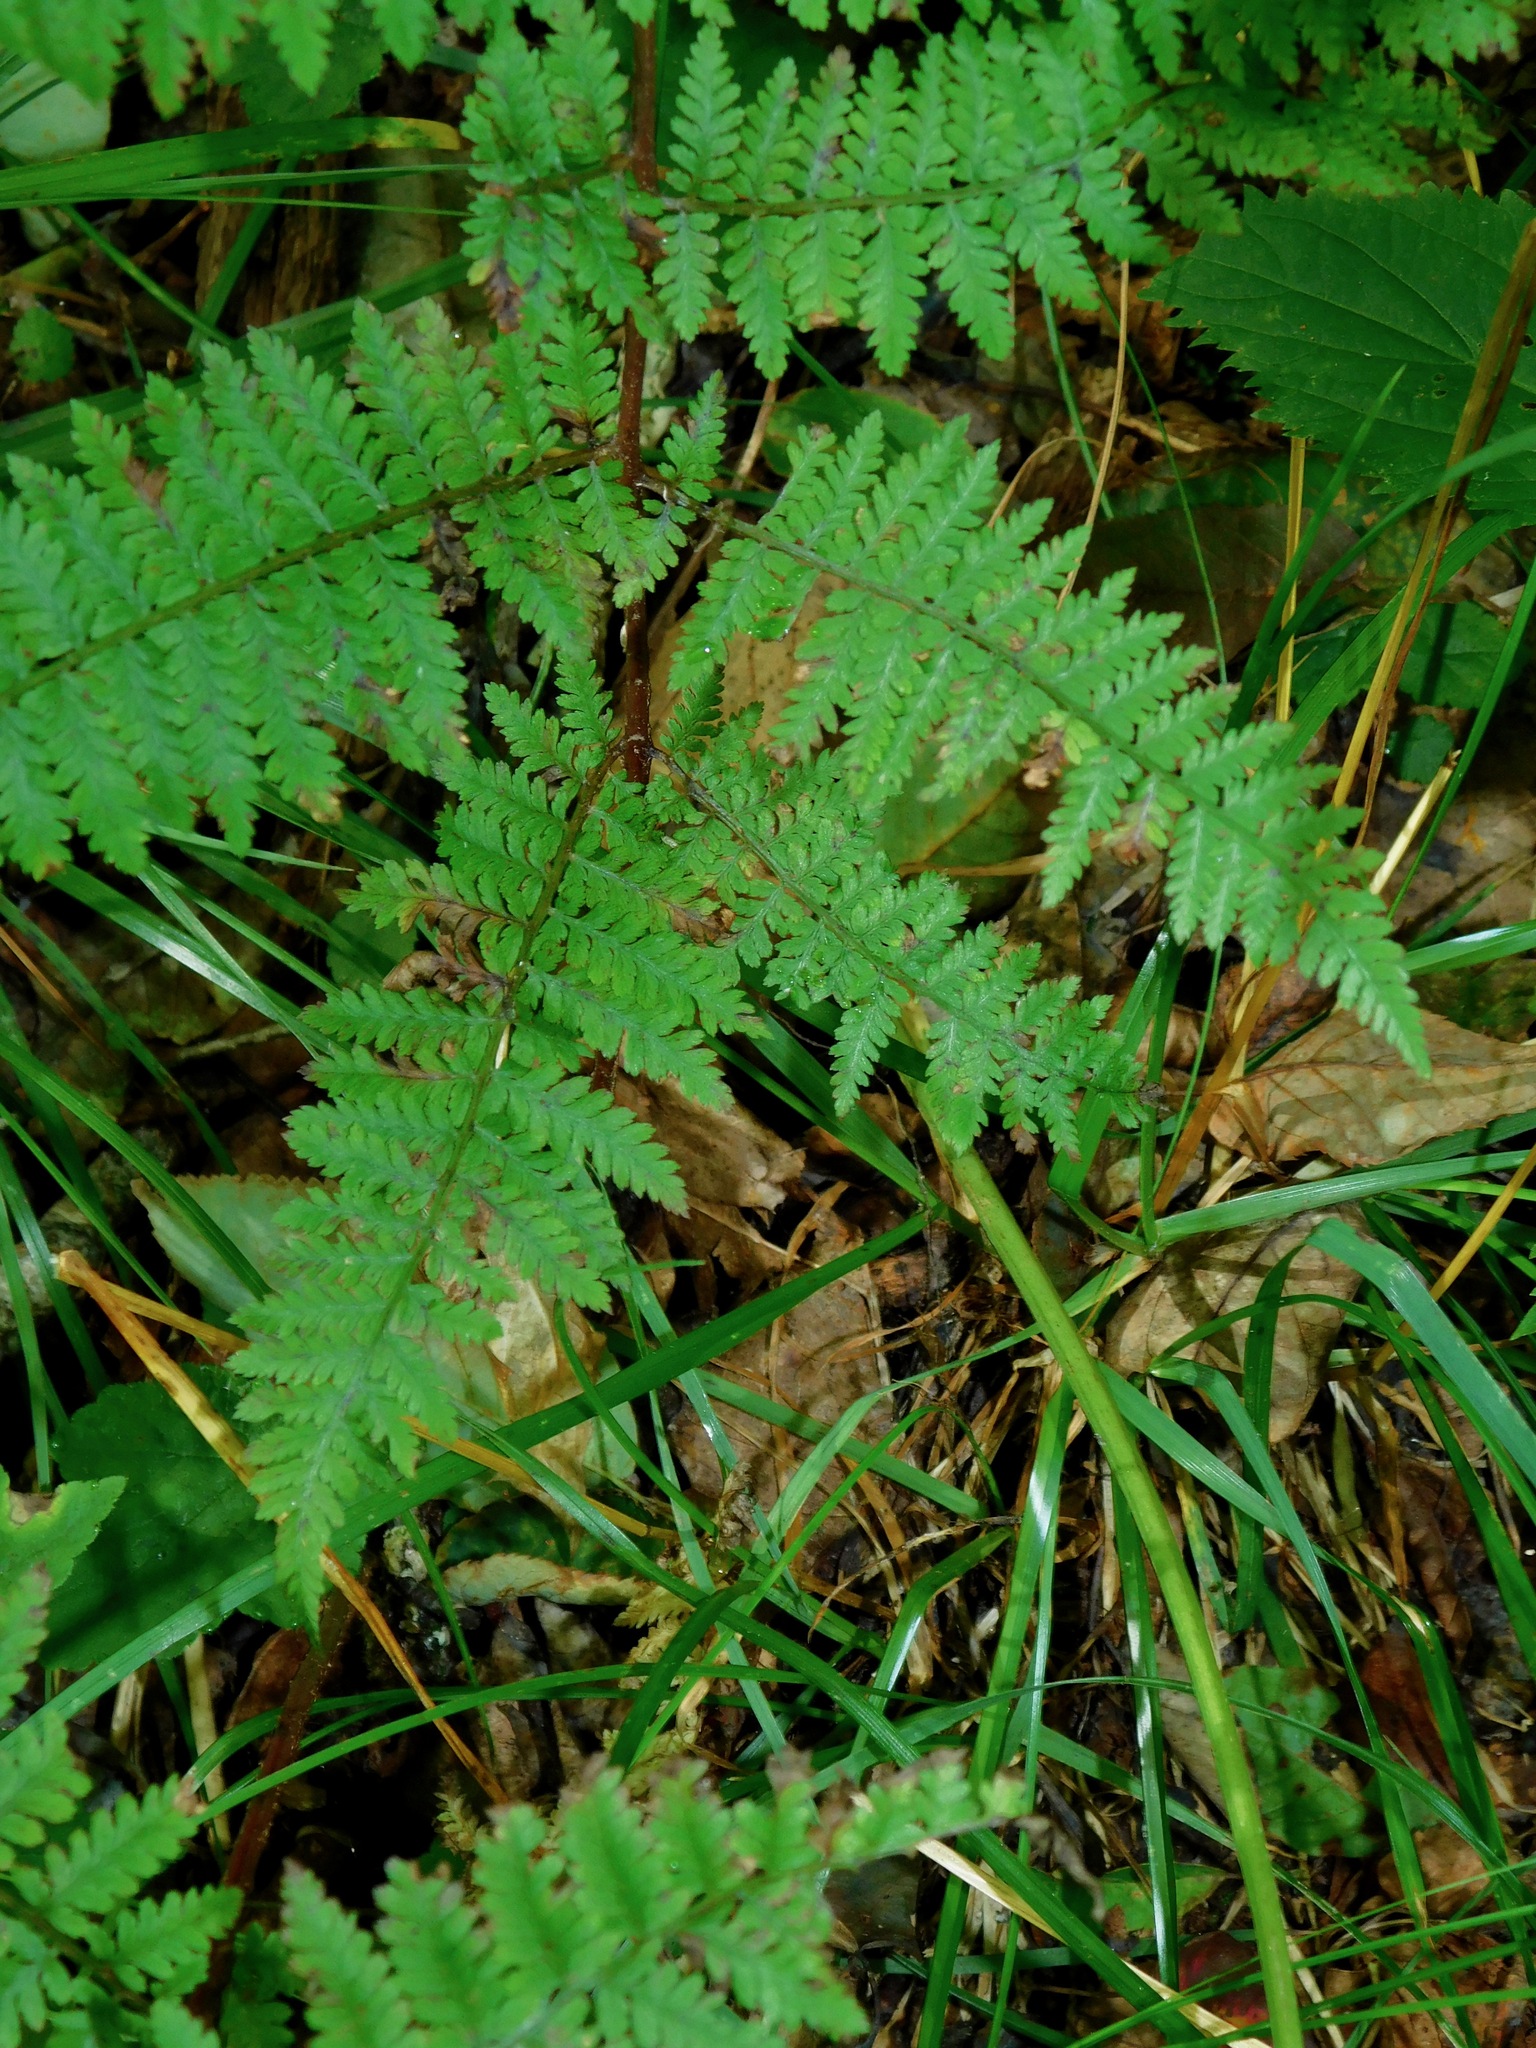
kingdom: Plantae
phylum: Tracheophyta
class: Polypodiopsida
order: Polypodiales
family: Athyriaceae
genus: Athyrium
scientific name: Athyrium asplenioides
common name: Southern lady fern
